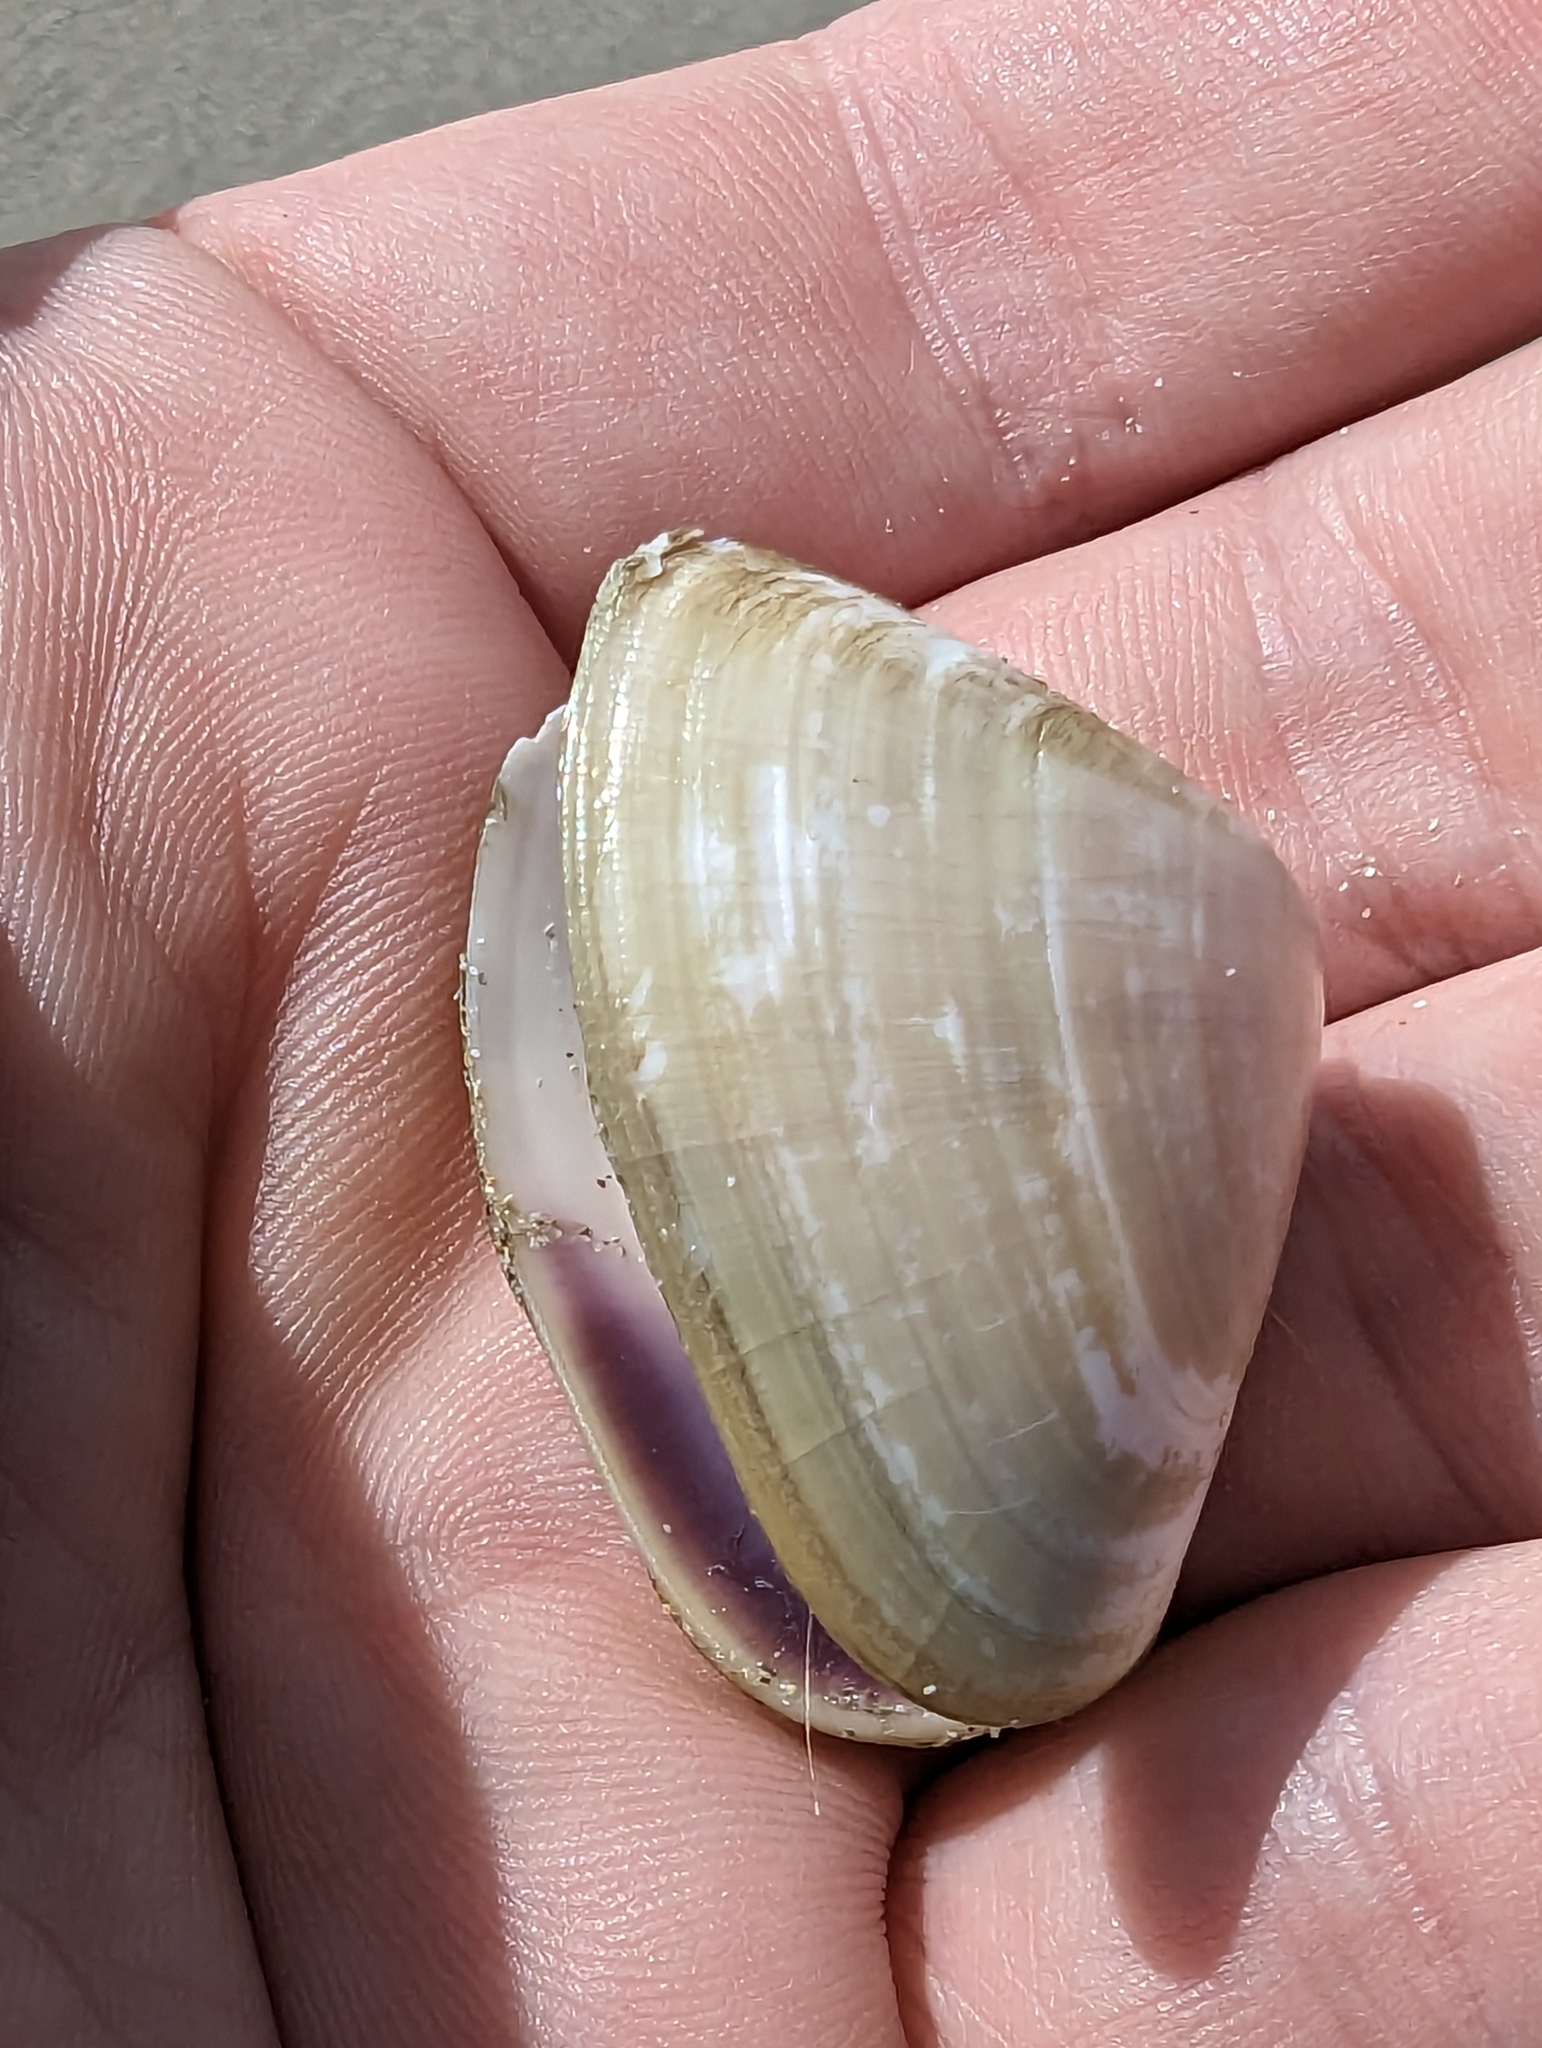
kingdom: Animalia
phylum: Mollusca
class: Bivalvia
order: Cardiida
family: Donacidae
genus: Latona
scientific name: Latona deltoides
